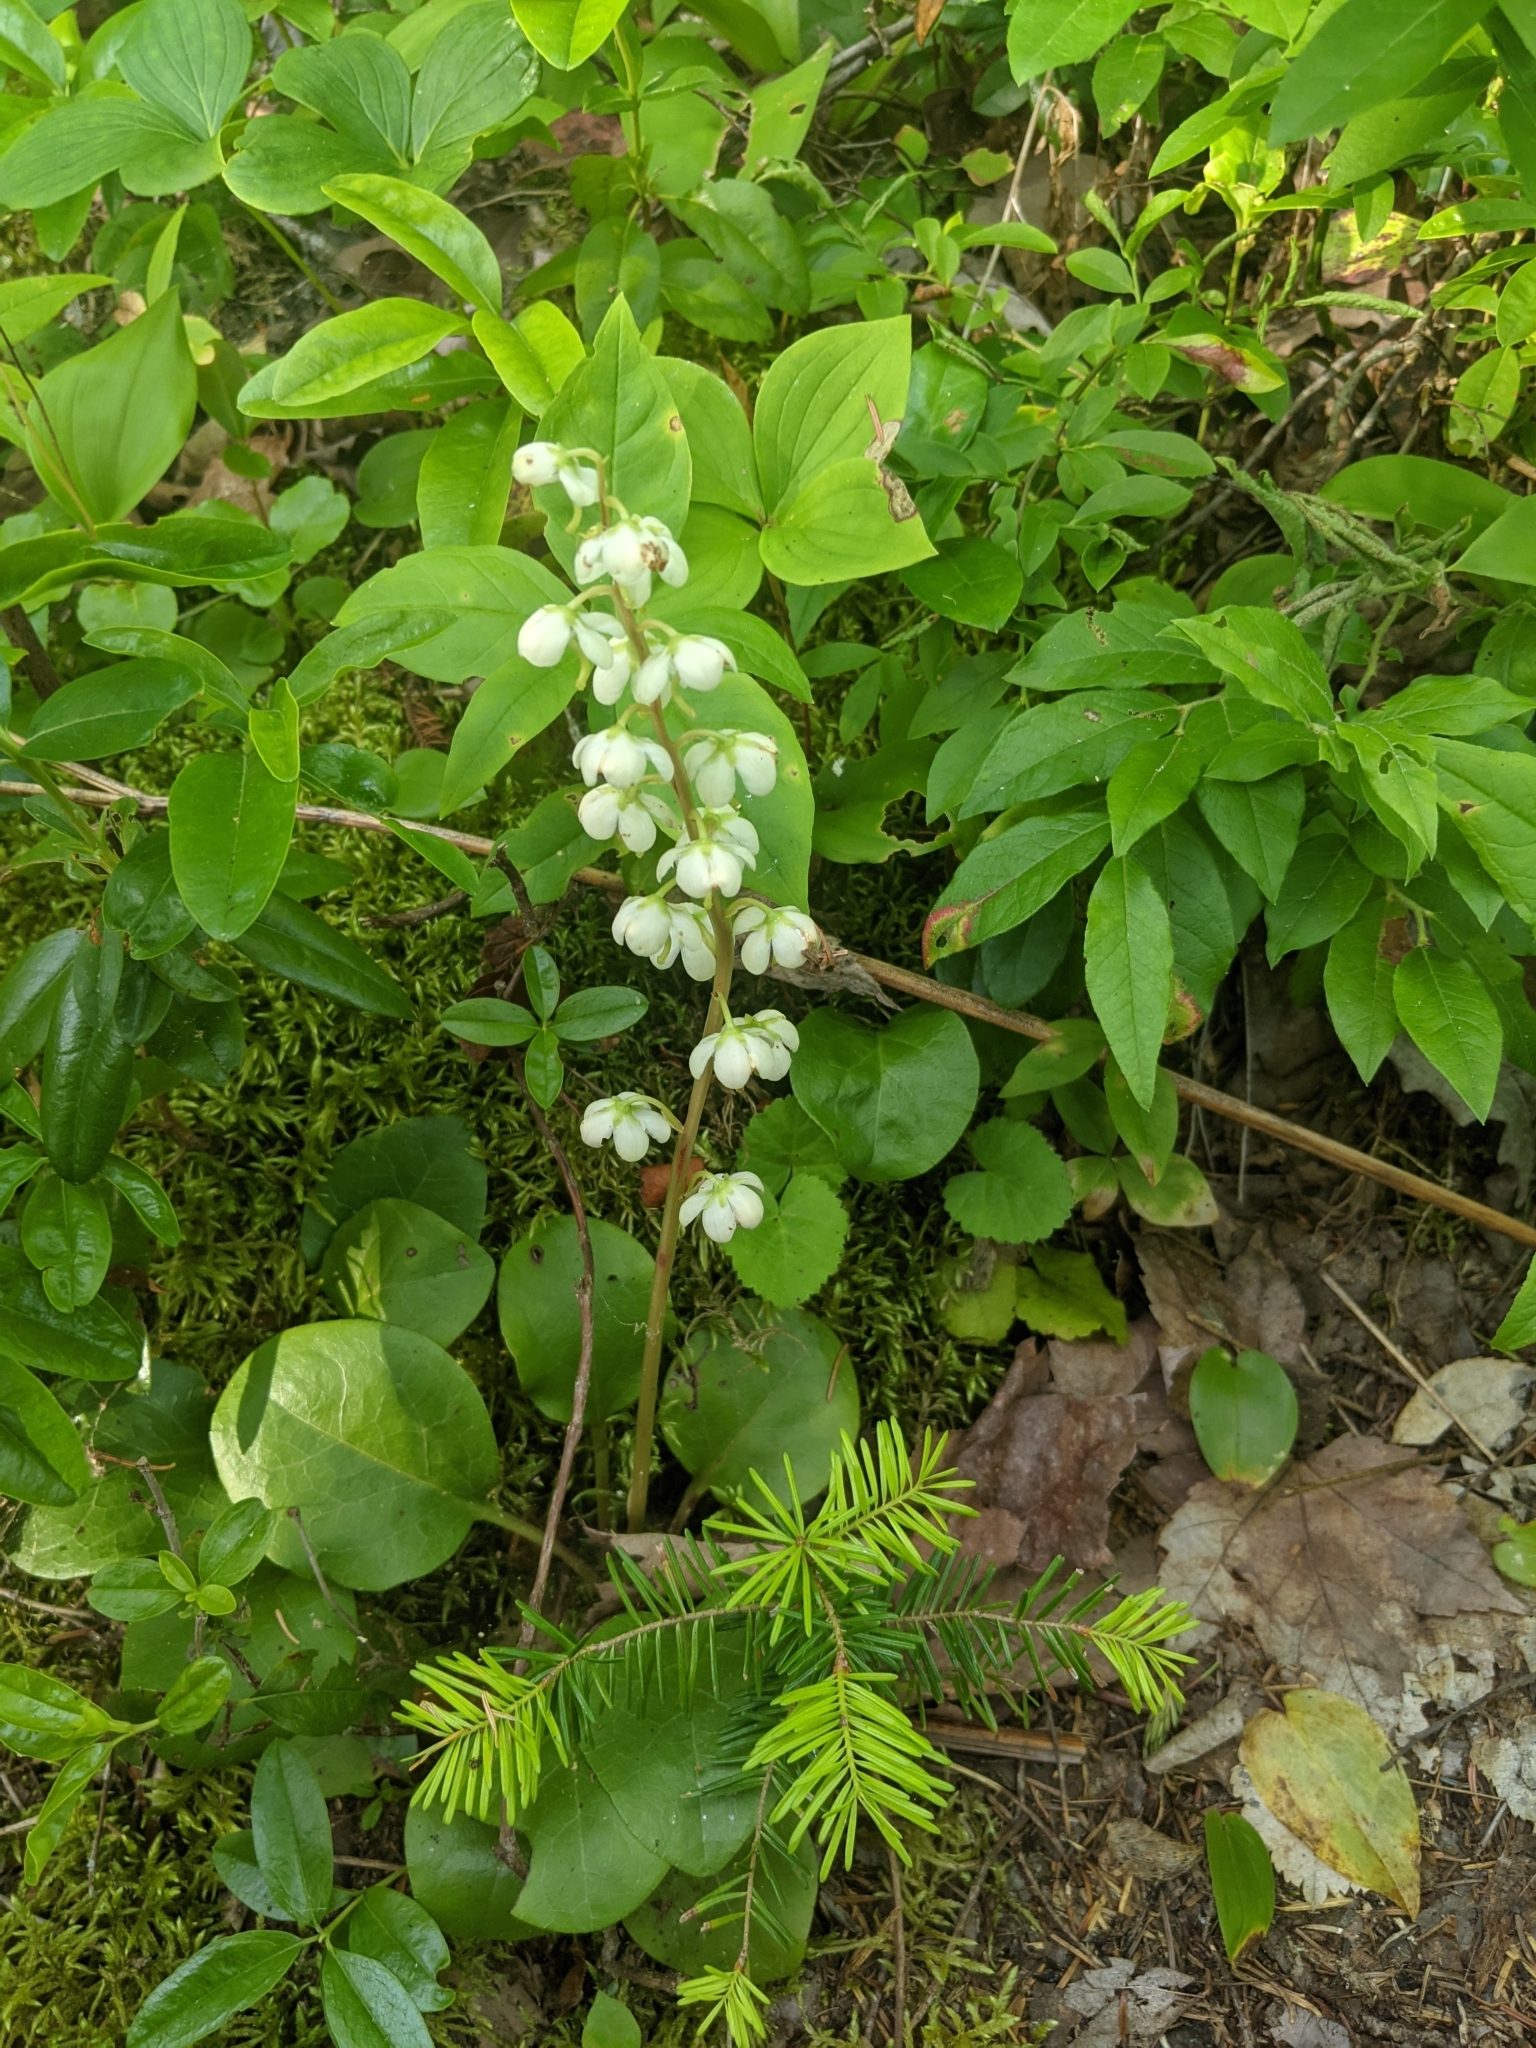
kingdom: Plantae
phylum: Tracheophyta
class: Magnoliopsida
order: Ericales
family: Ericaceae
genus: Pyrola
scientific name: Pyrola americana
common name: American wintergreen
